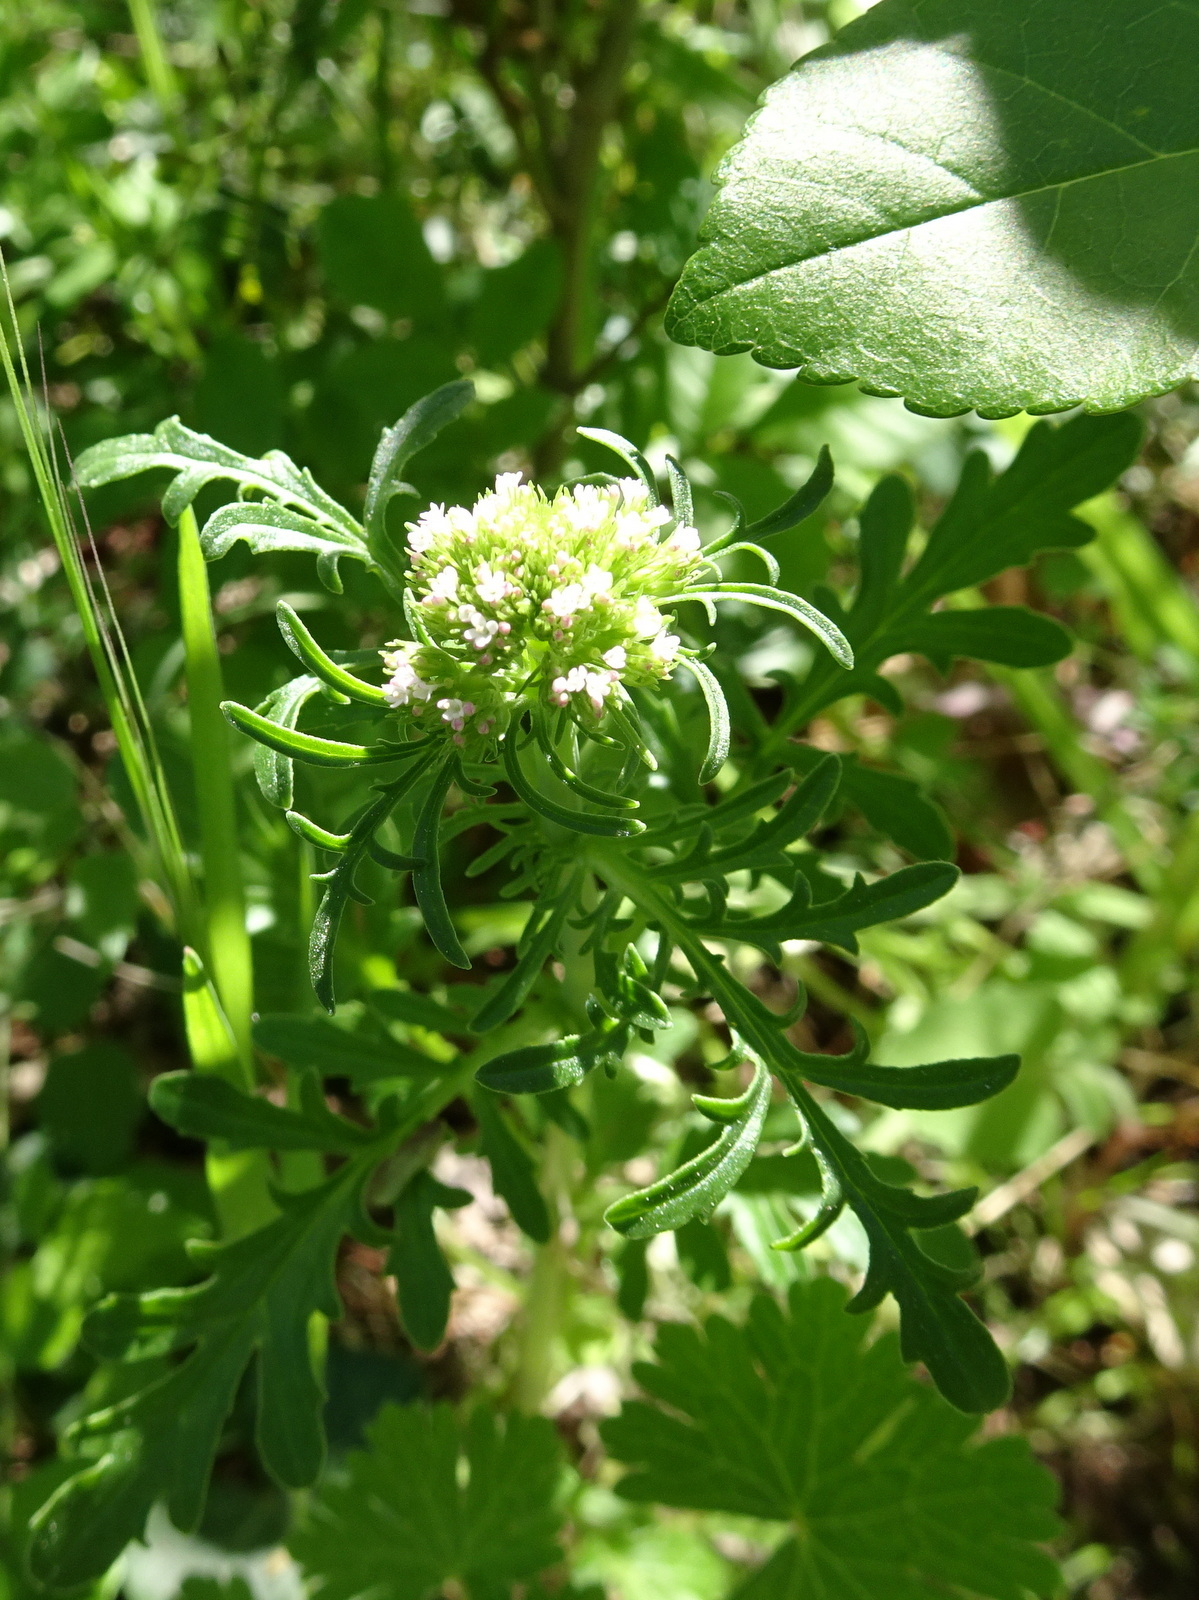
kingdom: Plantae
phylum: Tracheophyta
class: Magnoliopsida
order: Dipsacales
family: Caprifoliaceae
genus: Centranthus
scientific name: Centranthus calcitrapae
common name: Annual valerian
